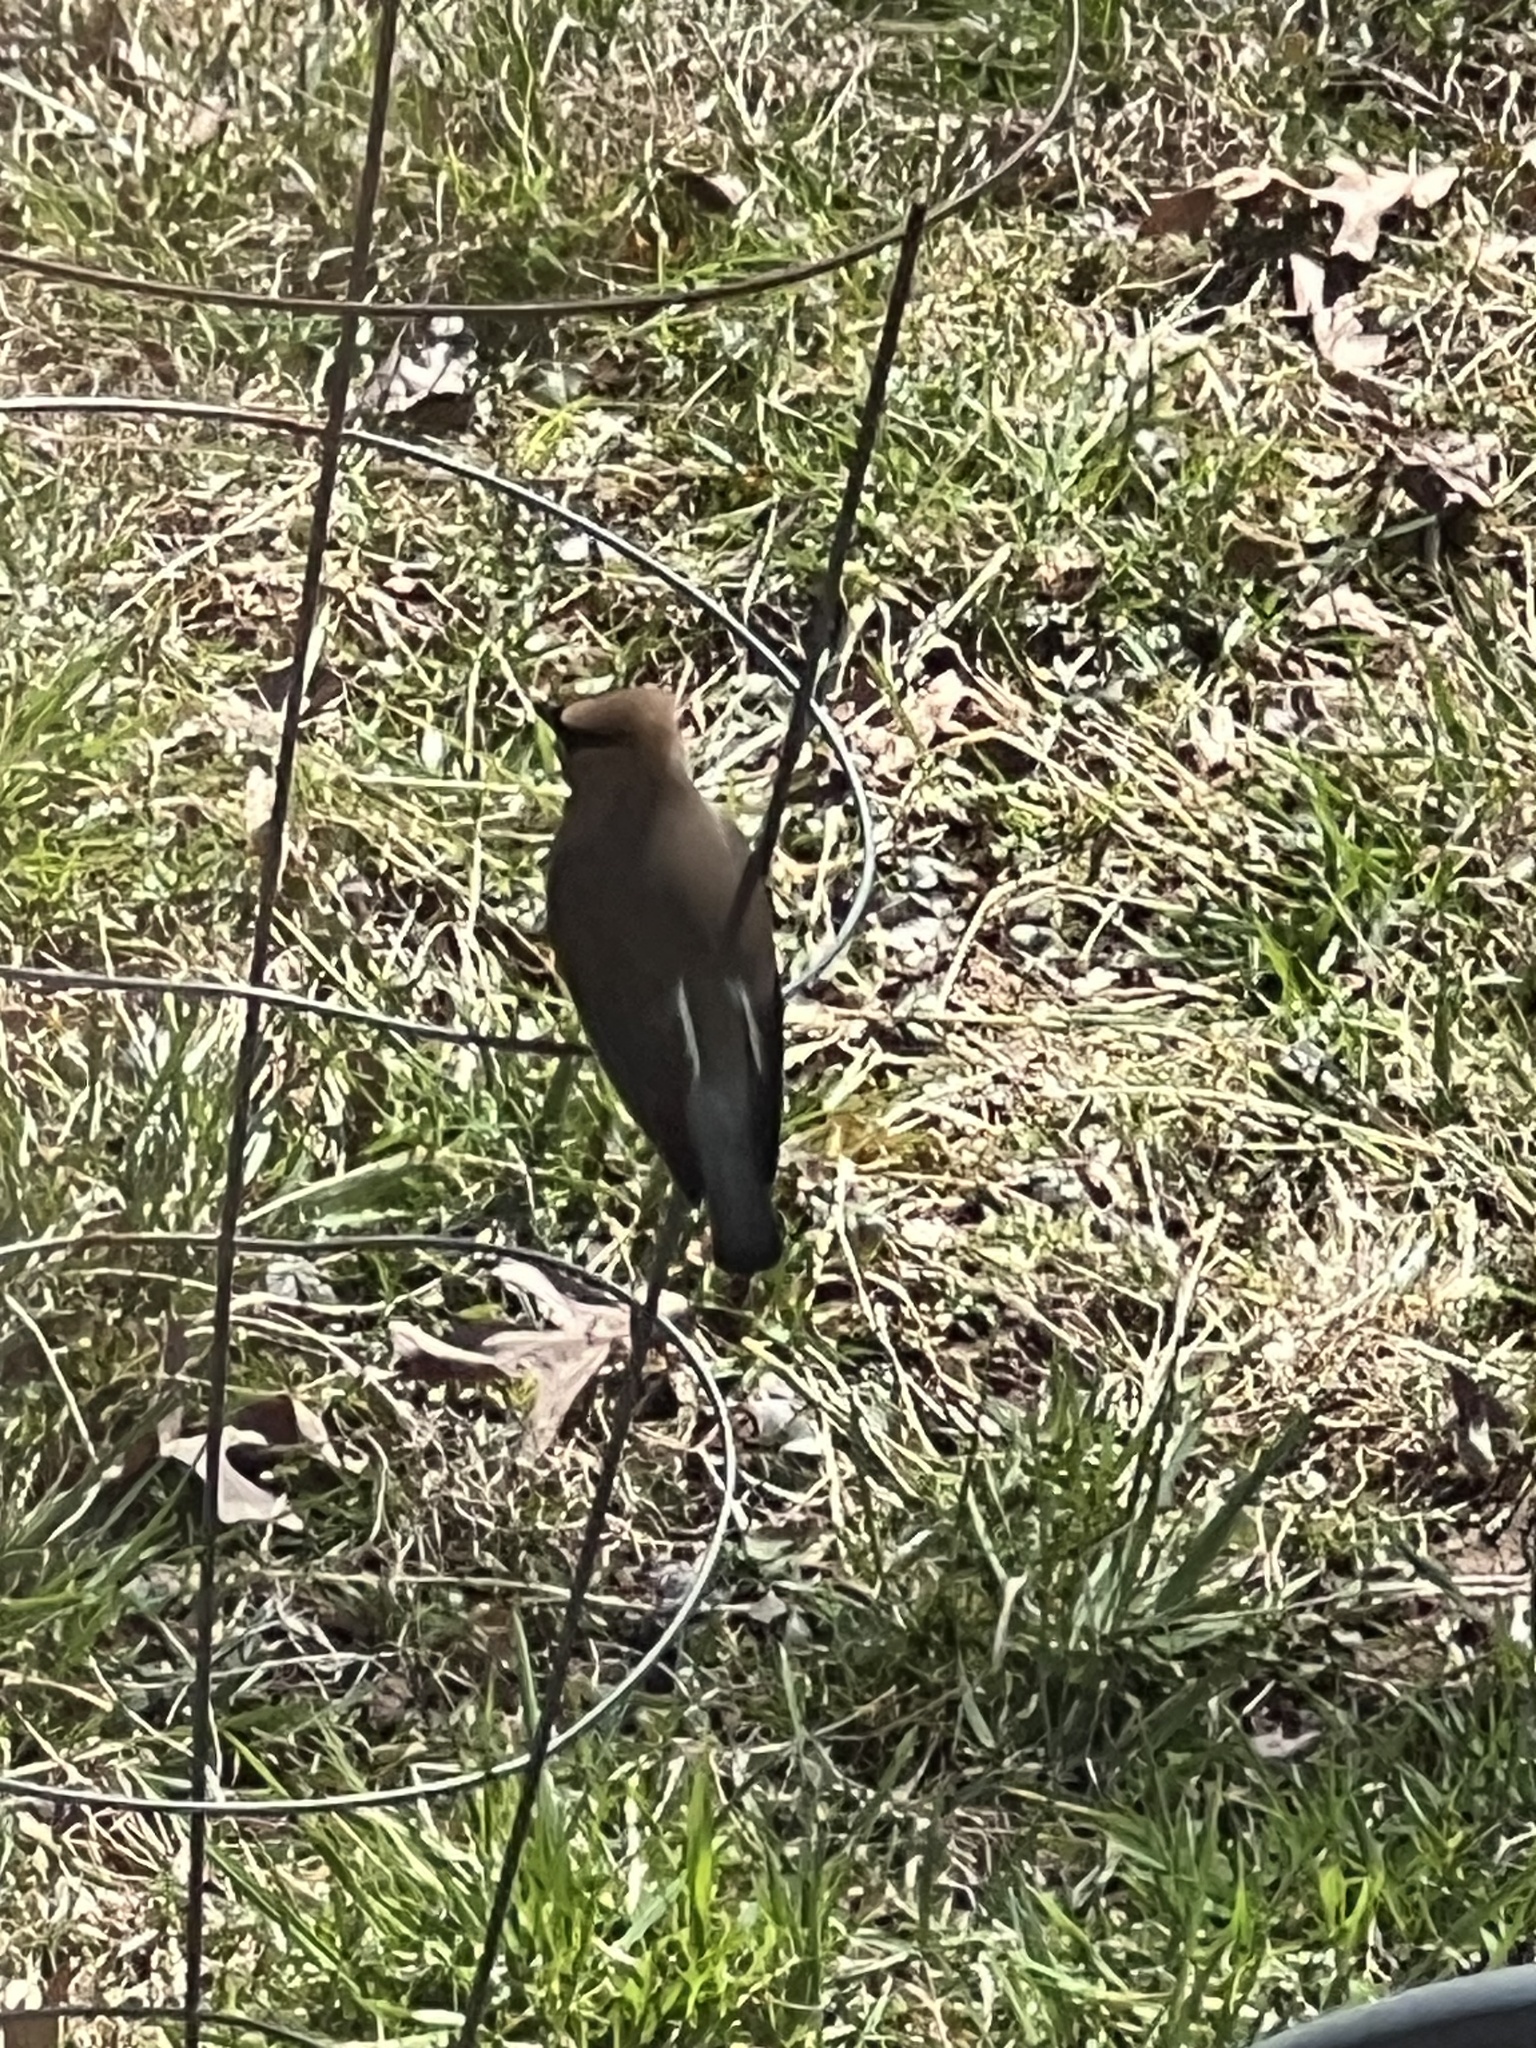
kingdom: Animalia
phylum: Chordata
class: Aves
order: Passeriformes
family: Bombycillidae
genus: Bombycilla
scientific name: Bombycilla cedrorum
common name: Cedar waxwing
